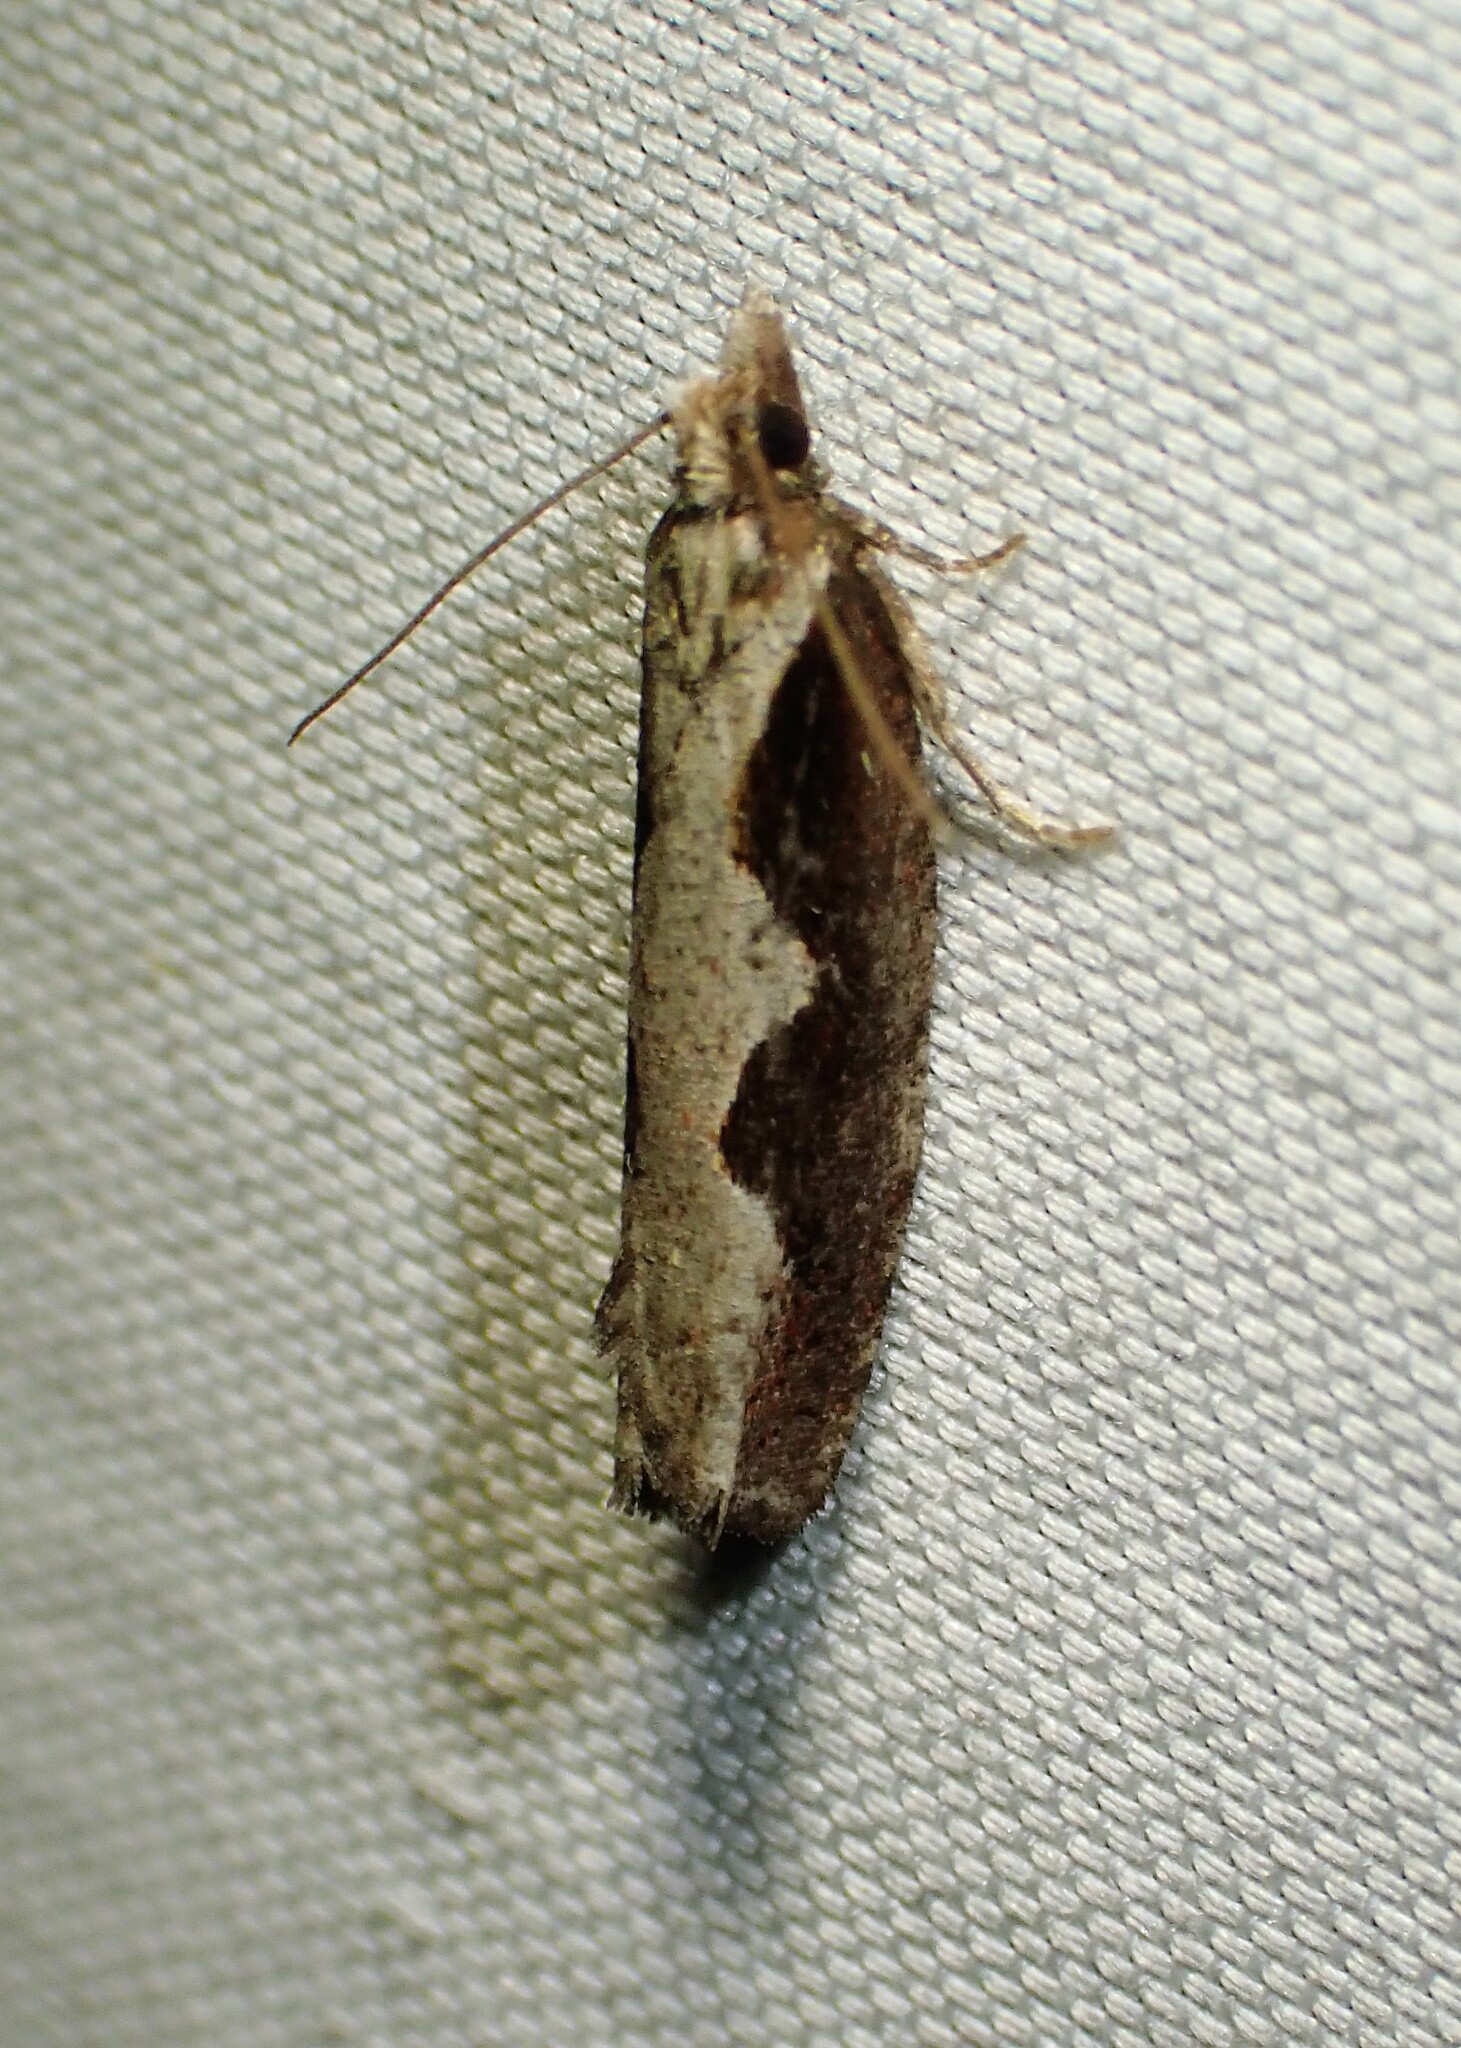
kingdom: Animalia
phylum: Arthropoda
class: Insecta
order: Lepidoptera
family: Tortricidae
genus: Epinotia
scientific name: Epinotia lindana
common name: Diamondback epinotia moth
